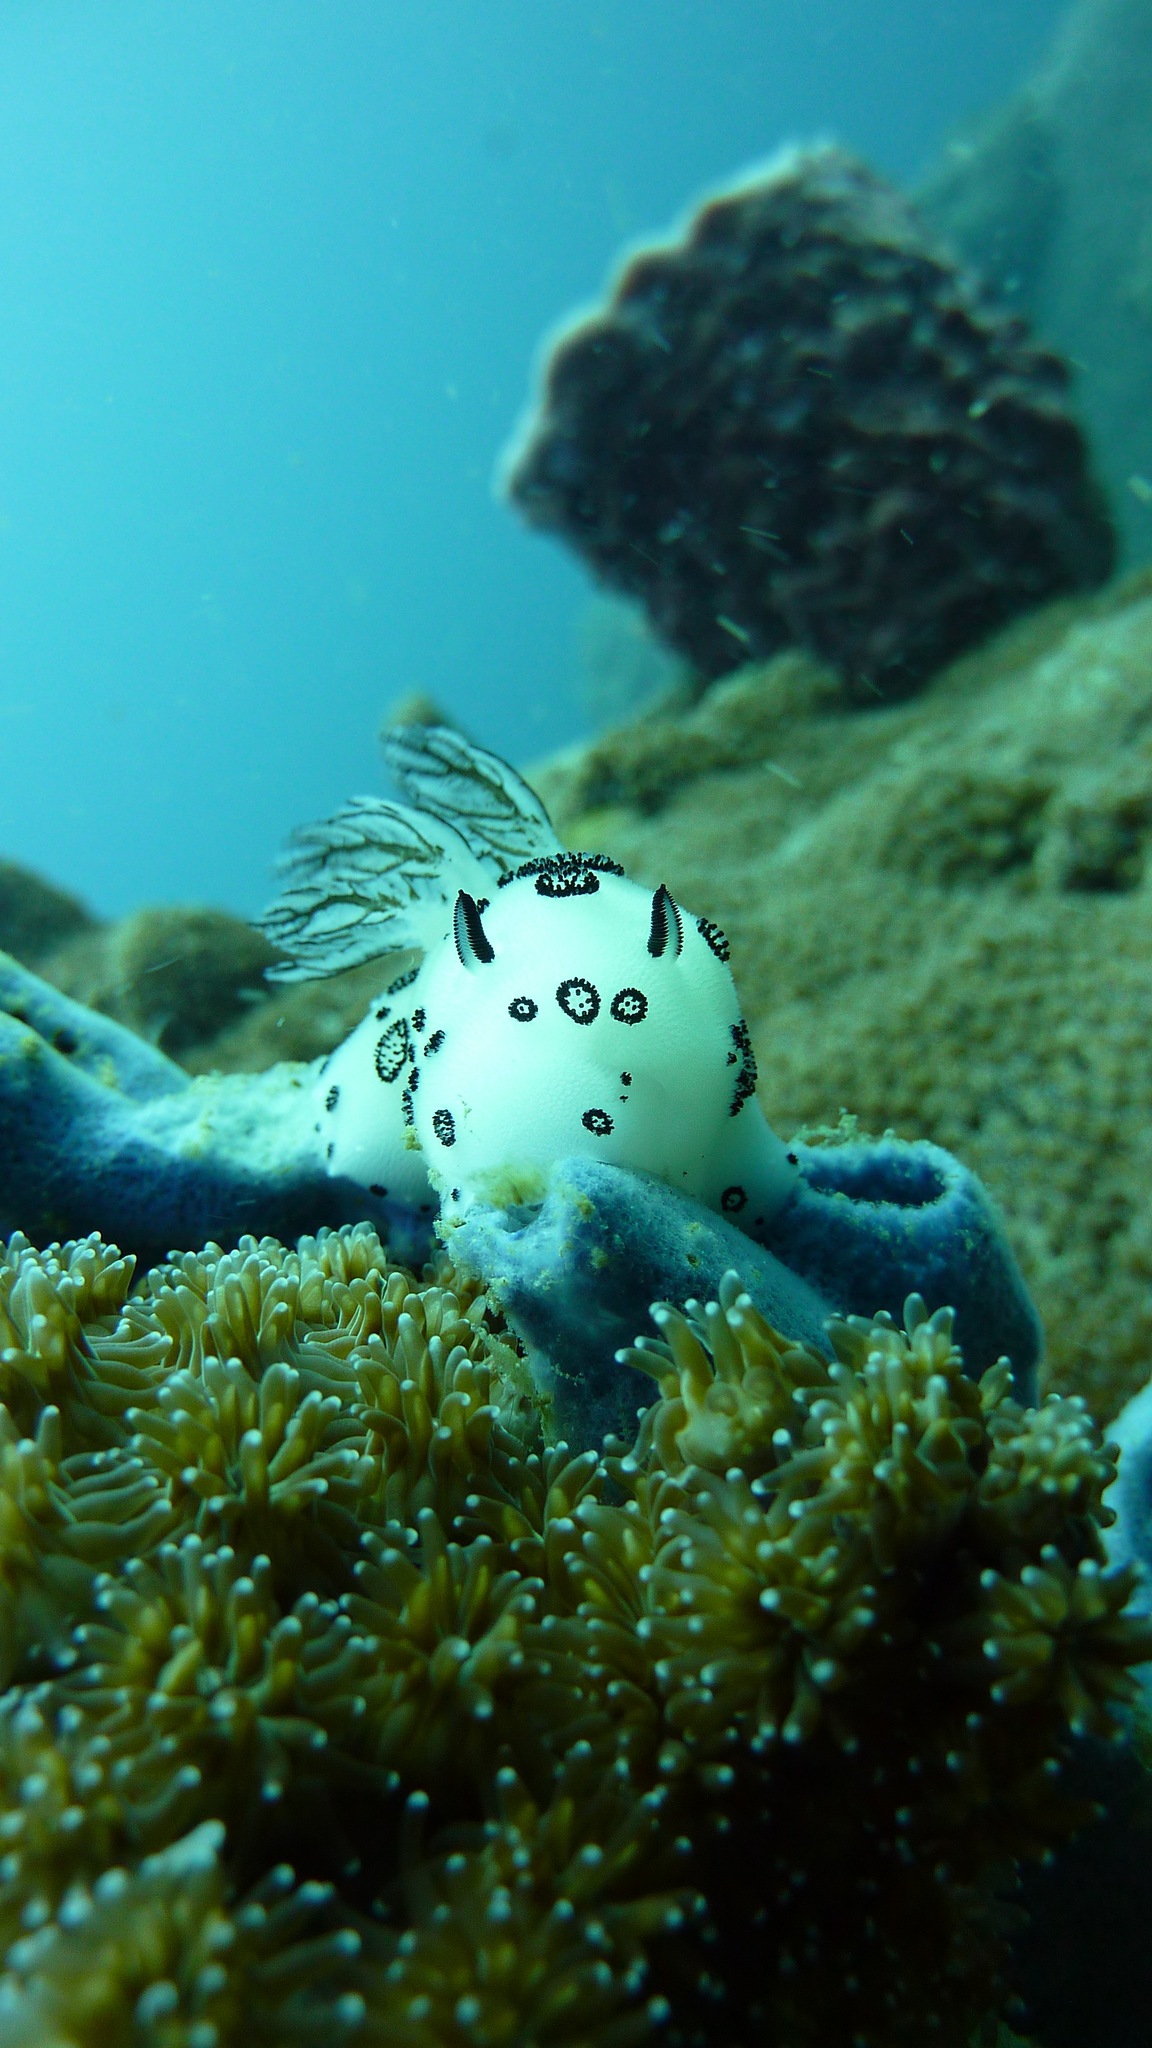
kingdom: Animalia
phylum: Mollusca
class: Gastropoda
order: Nudibranchia
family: Discodorididae
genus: Jorunna
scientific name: Jorunna funebris
